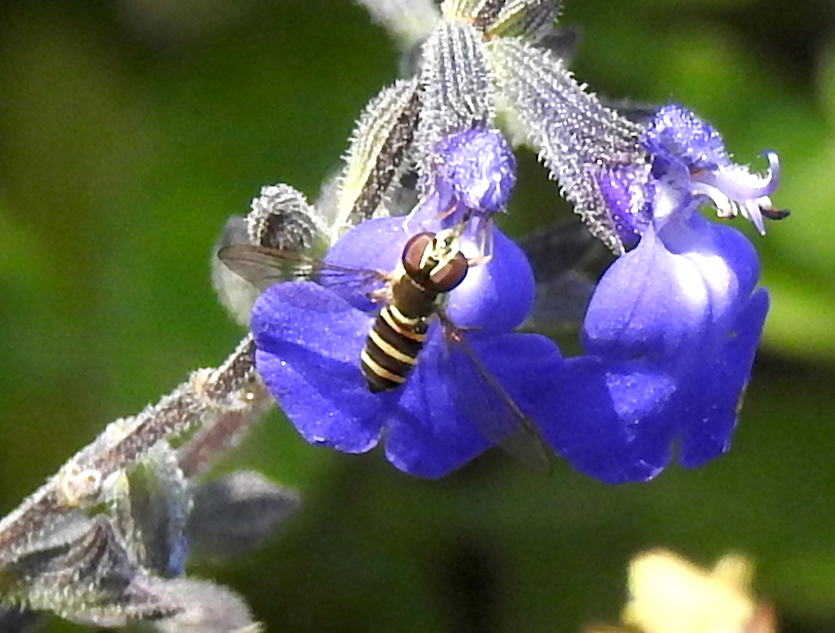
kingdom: Animalia
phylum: Arthropoda
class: Insecta
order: Diptera
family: Syrphidae
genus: Fazia
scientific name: Fazia micrura
